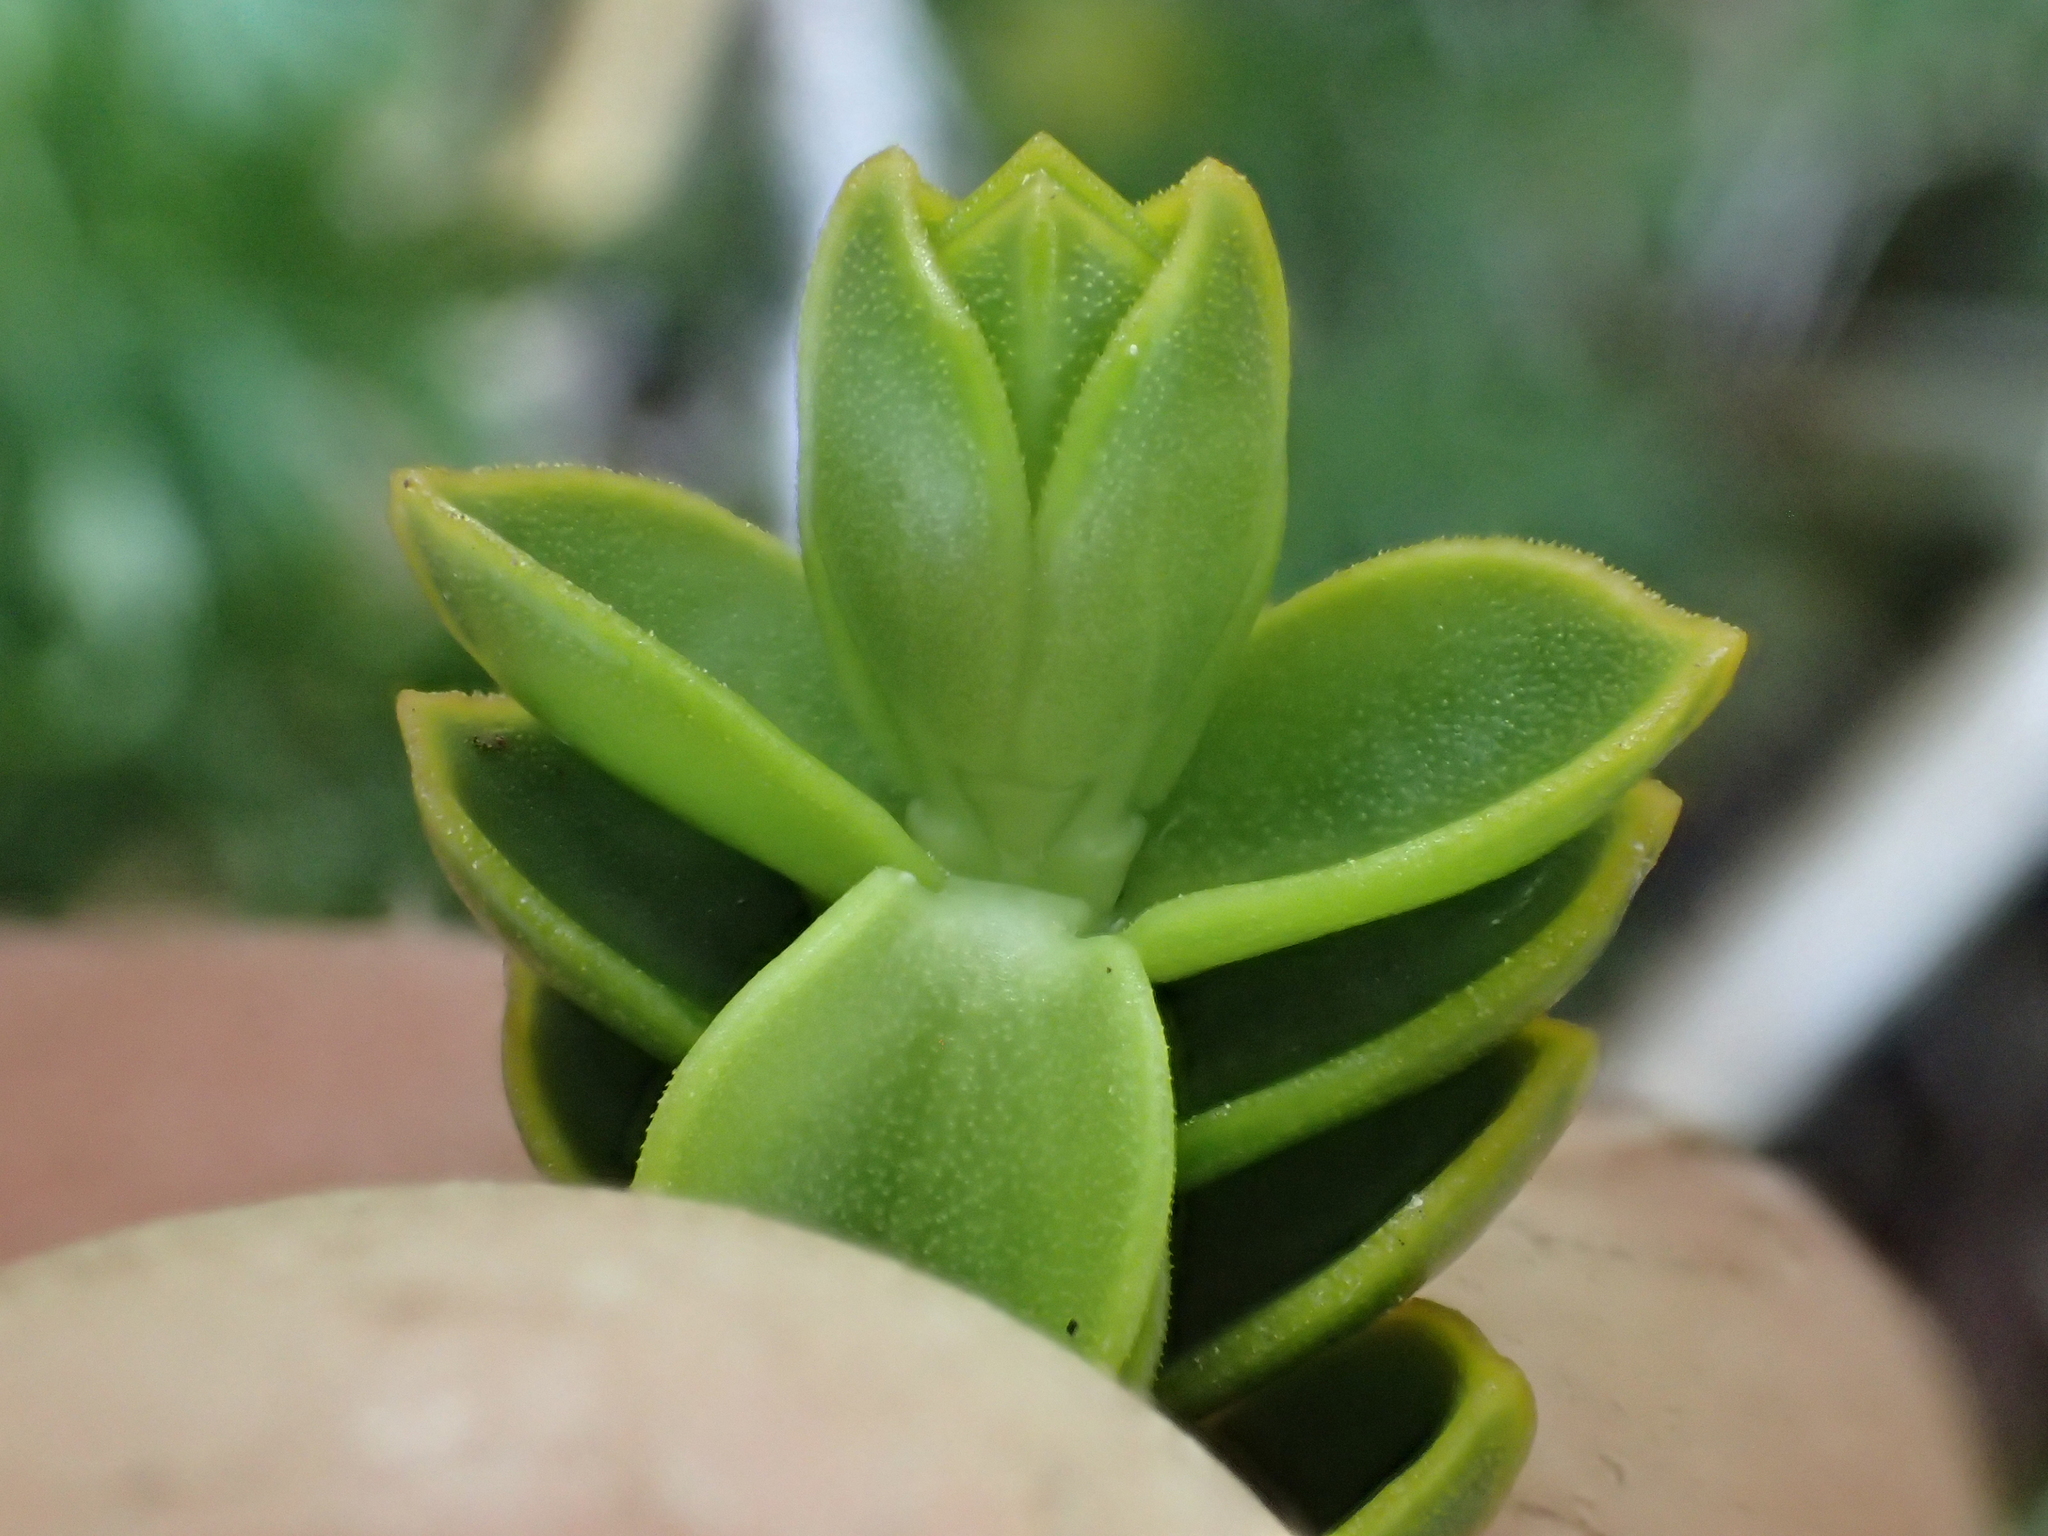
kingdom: Plantae
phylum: Tracheophyta
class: Magnoliopsida
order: Lamiales
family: Plantaginaceae
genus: Veronica
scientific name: Veronica pauciramosa
